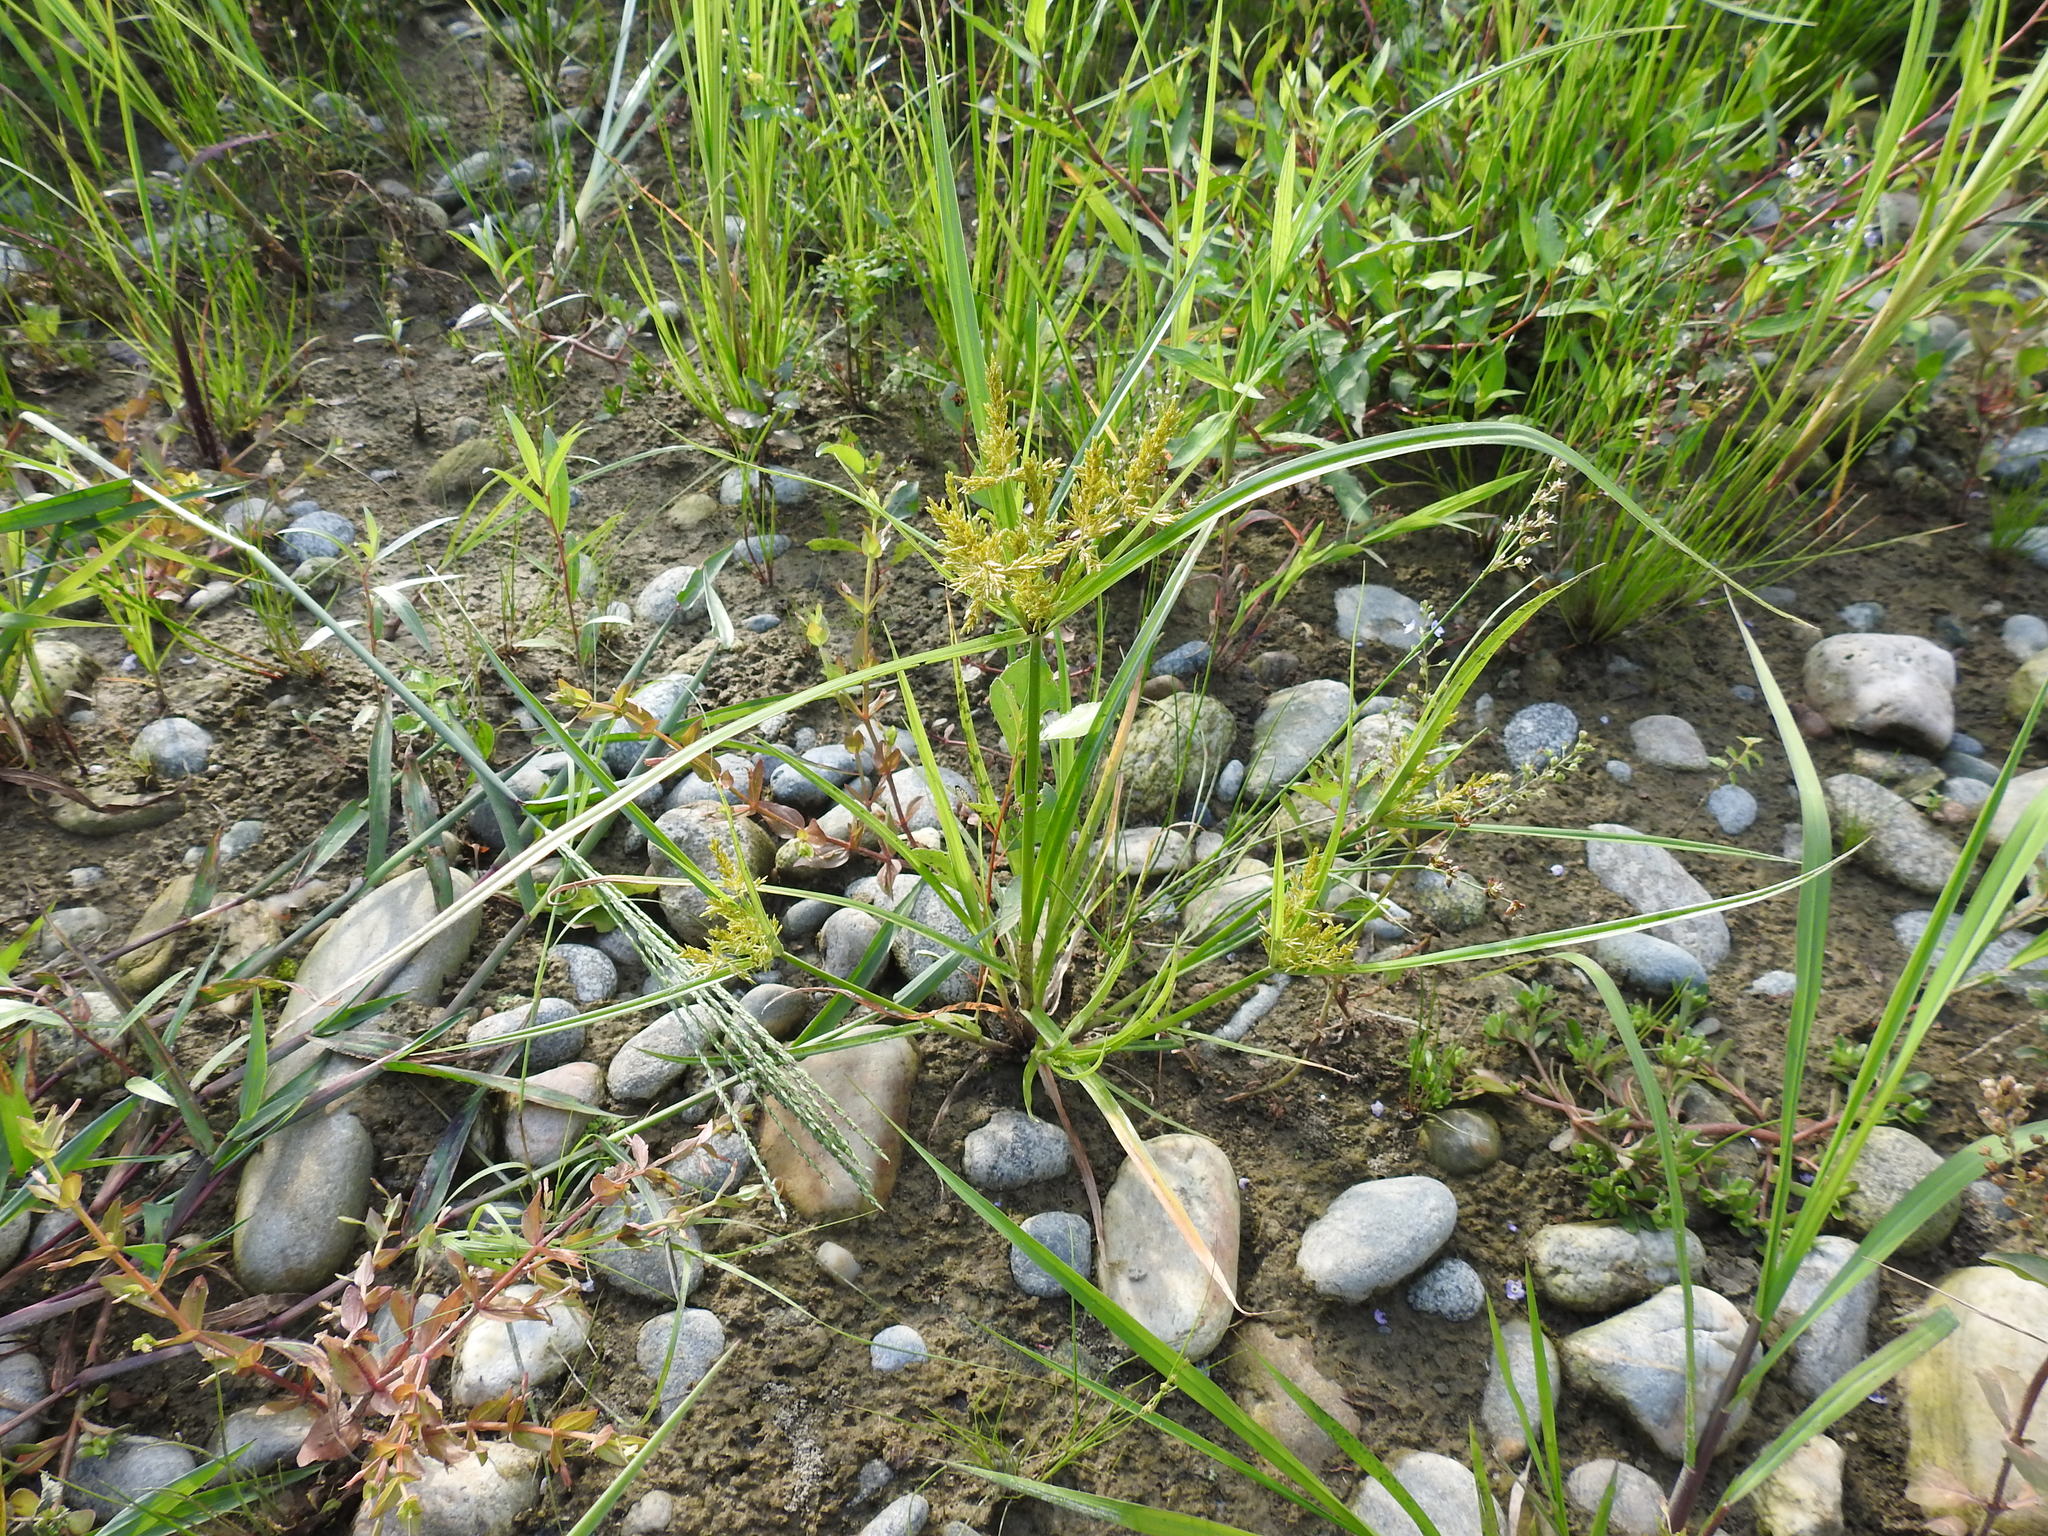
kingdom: Plantae
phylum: Tracheophyta
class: Liliopsida
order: Poales
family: Cyperaceae
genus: Cyperus
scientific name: Cyperus microiria
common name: Asian flatsedge
